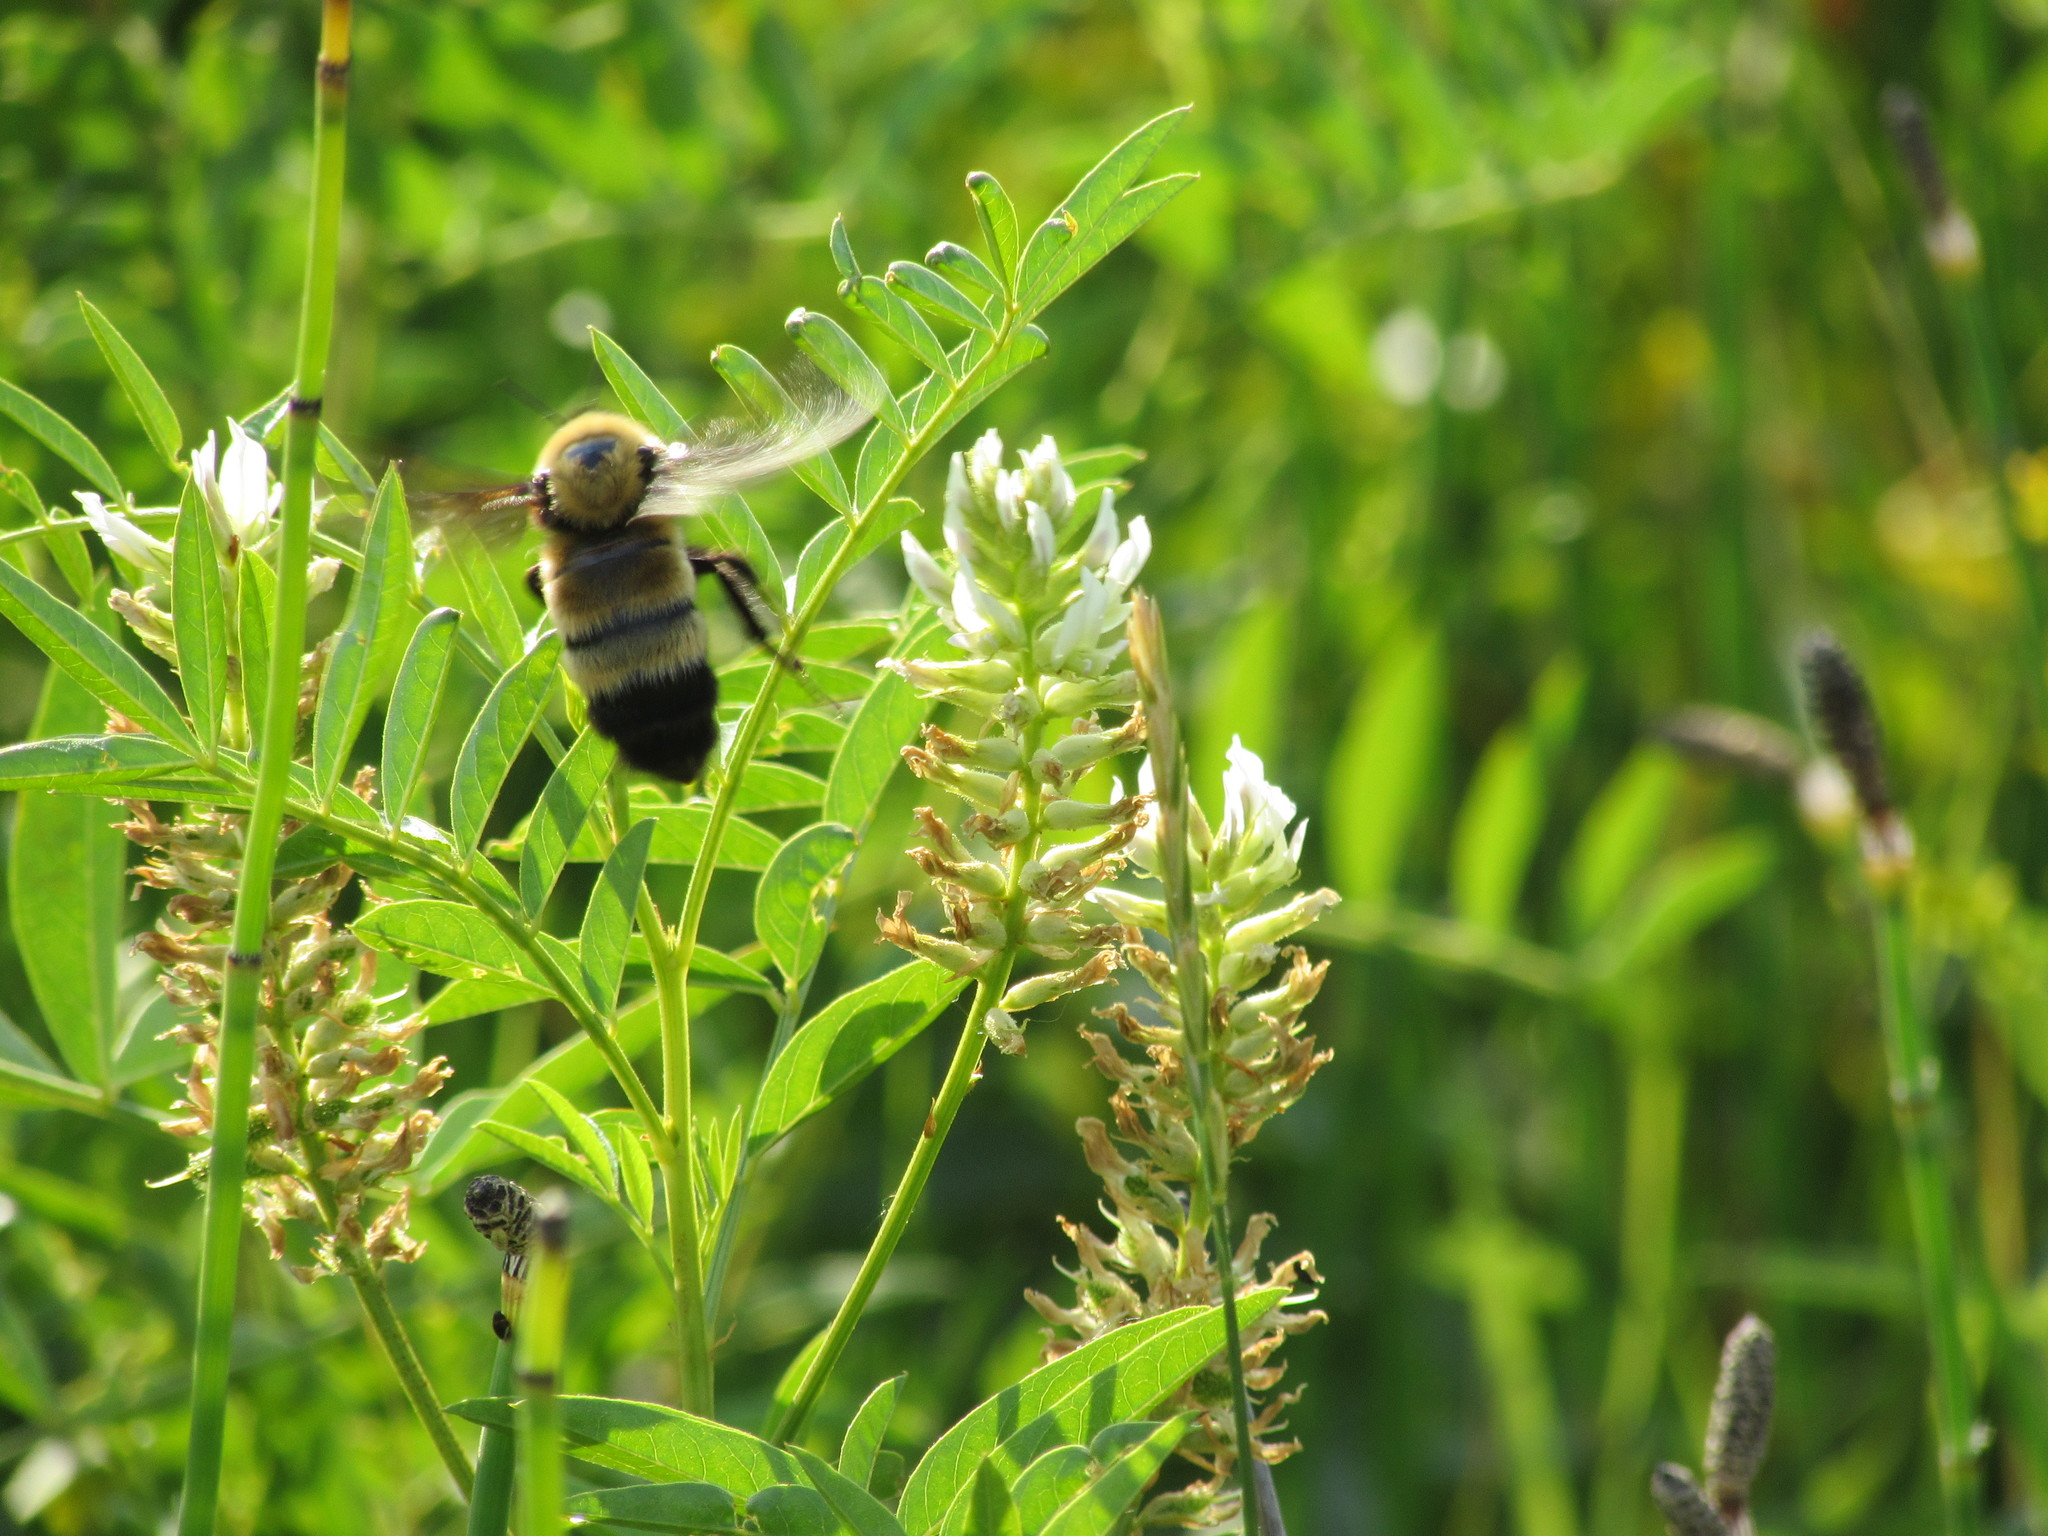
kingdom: Animalia
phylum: Arthropoda
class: Insecta
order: Hymenoptera
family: Apidae
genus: Bombus
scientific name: Bombus nevadensis
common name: Nevada bumble bee
